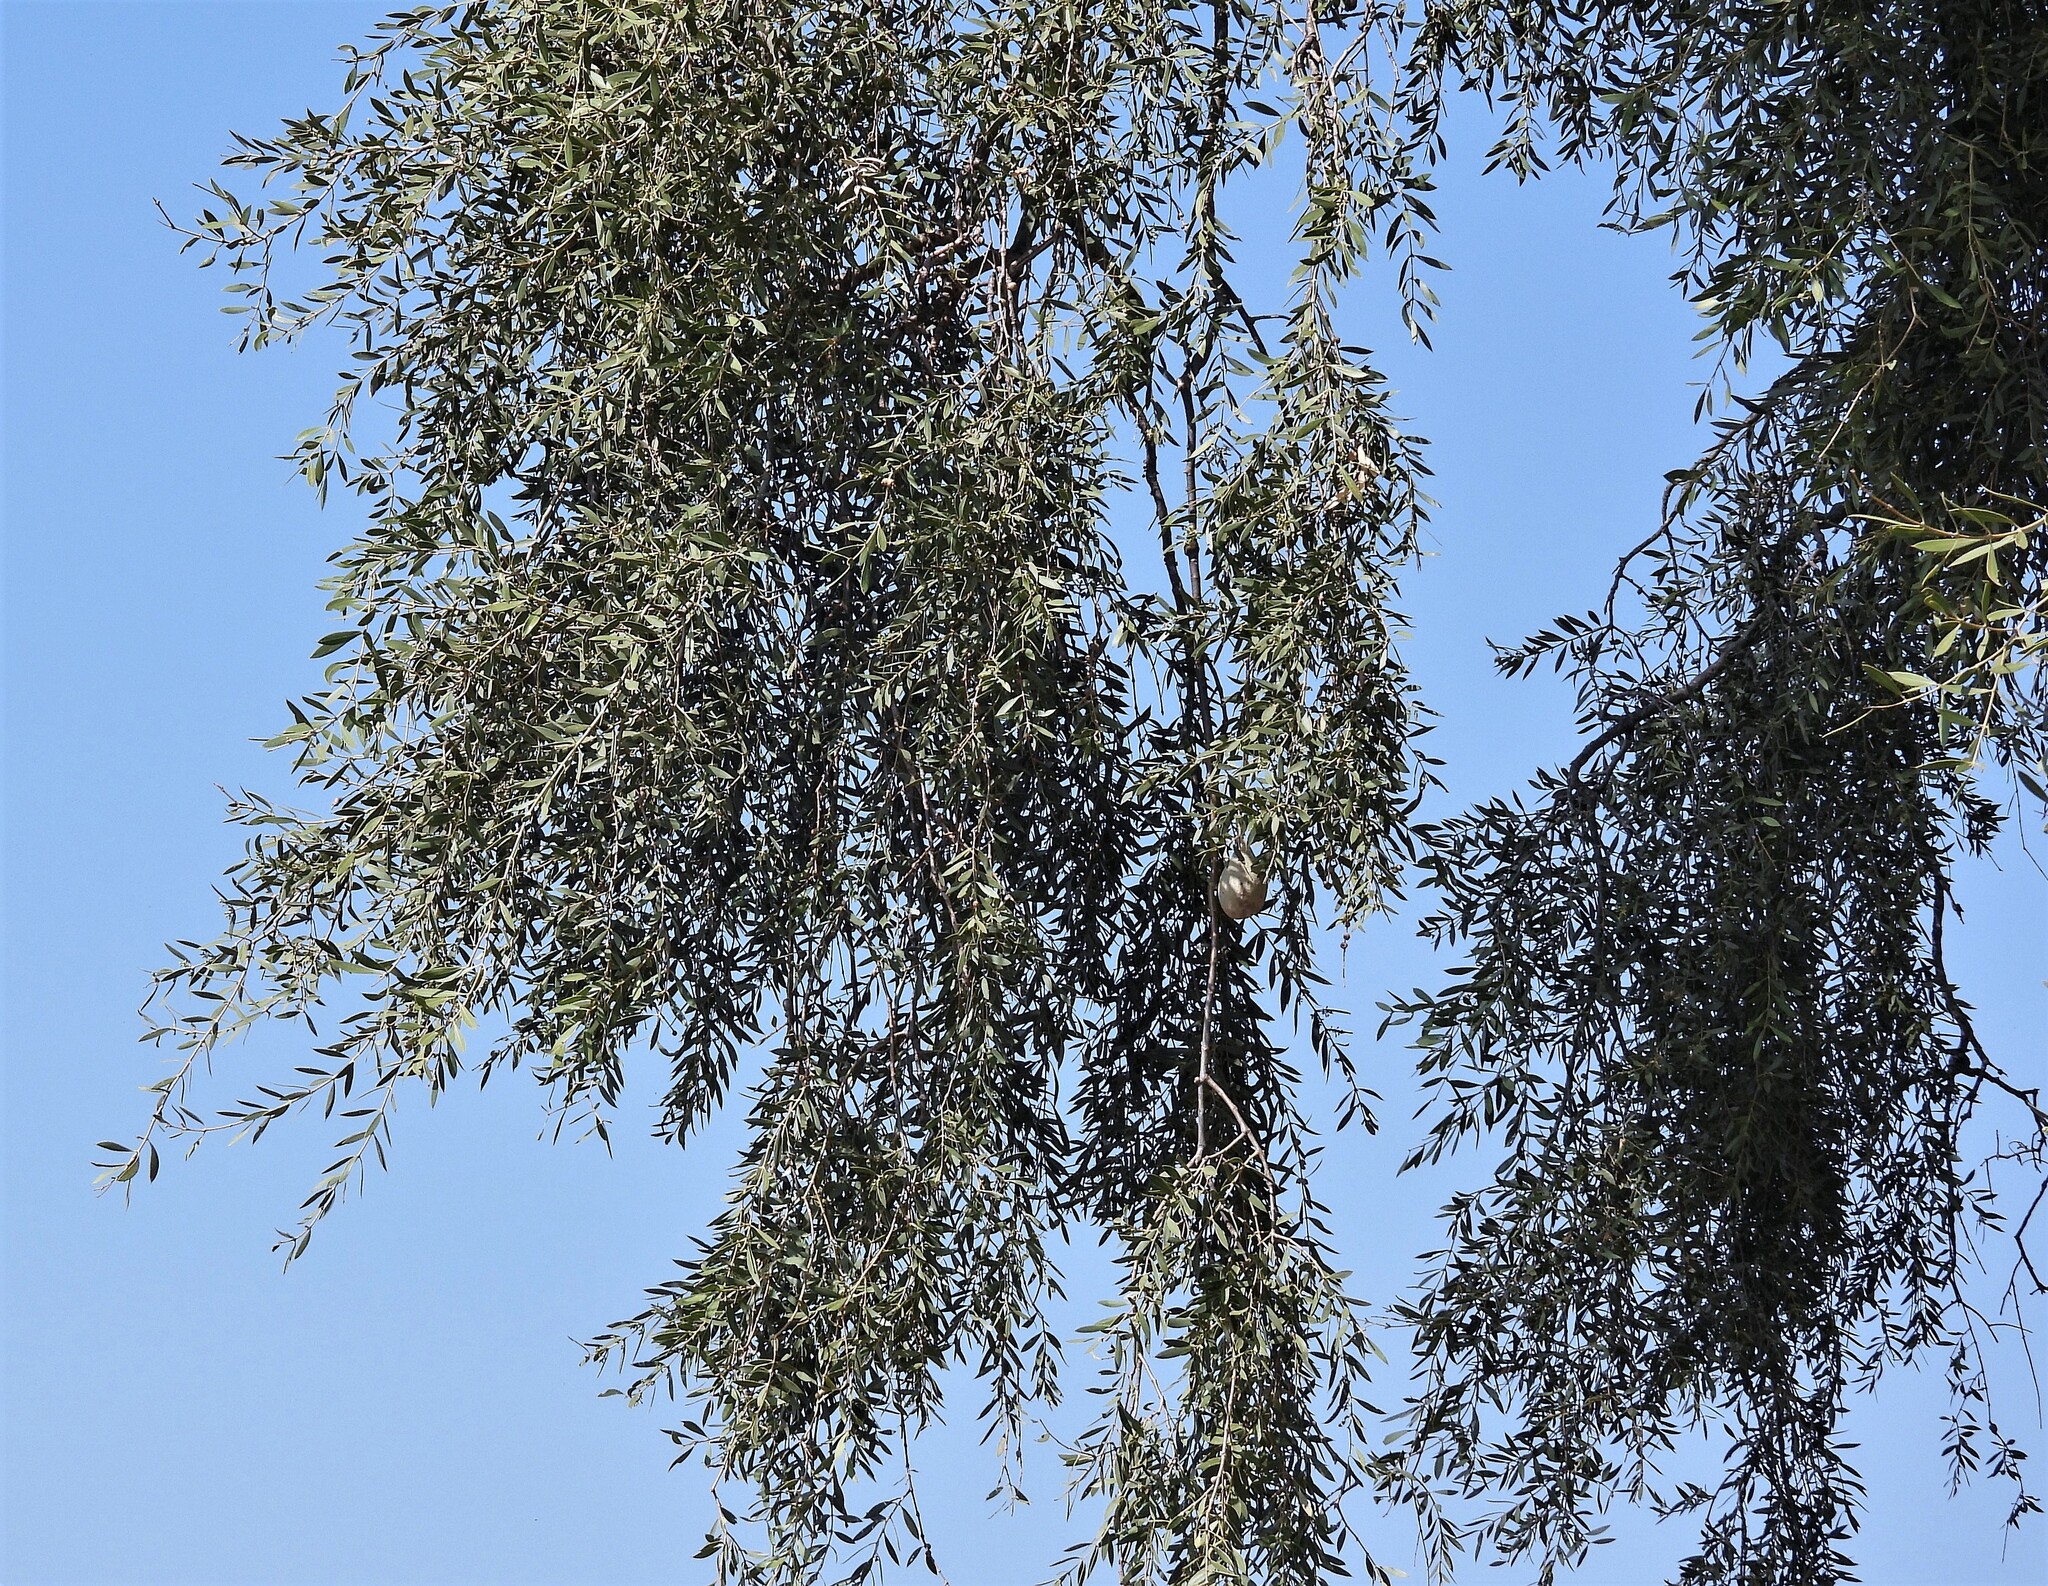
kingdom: Plantae
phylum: Tracheophyta
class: Magnoliopsida
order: Gentianales
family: Apocynaceae
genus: Aspidosperma
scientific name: Aspidosperma quebracho-blanco
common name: White quebracho
